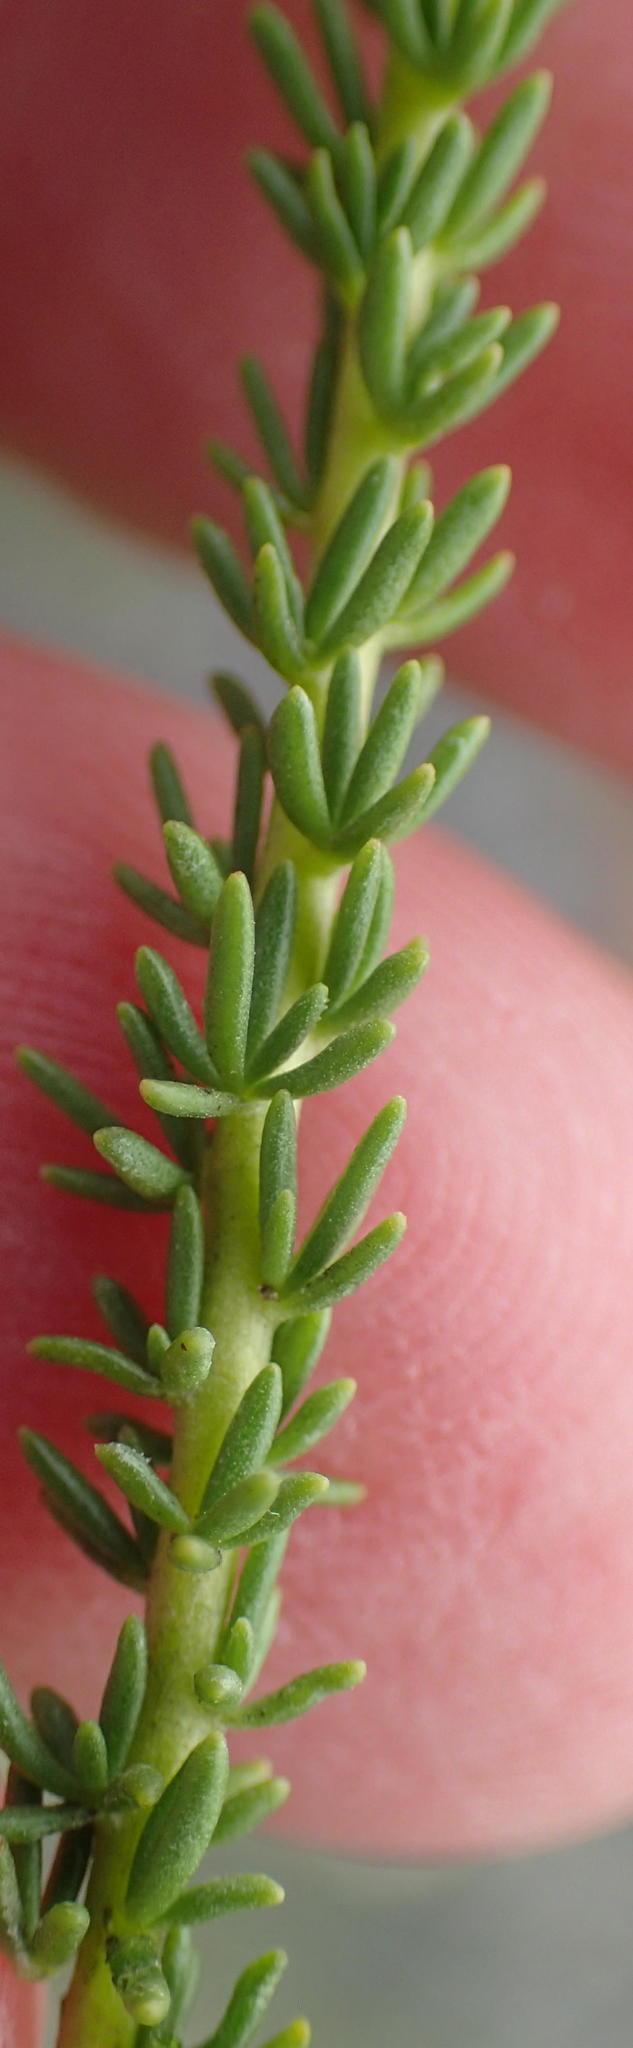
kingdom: Plantae
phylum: Tracheophyta
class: Magnoliopsida
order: Lamiales
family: Scrophulariaceae
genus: Selago
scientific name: Selago dolosa
